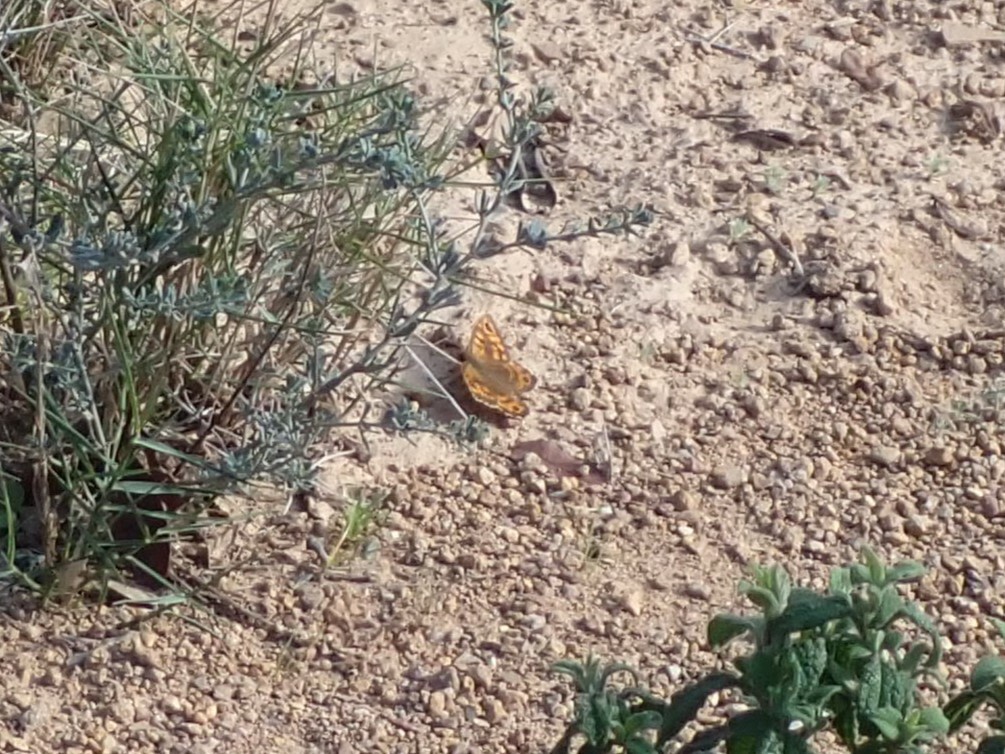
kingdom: Animalia
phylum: Arthropoda
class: Insecta
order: Lepidoptera
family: Nymphalidae
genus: Pararge
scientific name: Pararge Lasiommata megera
